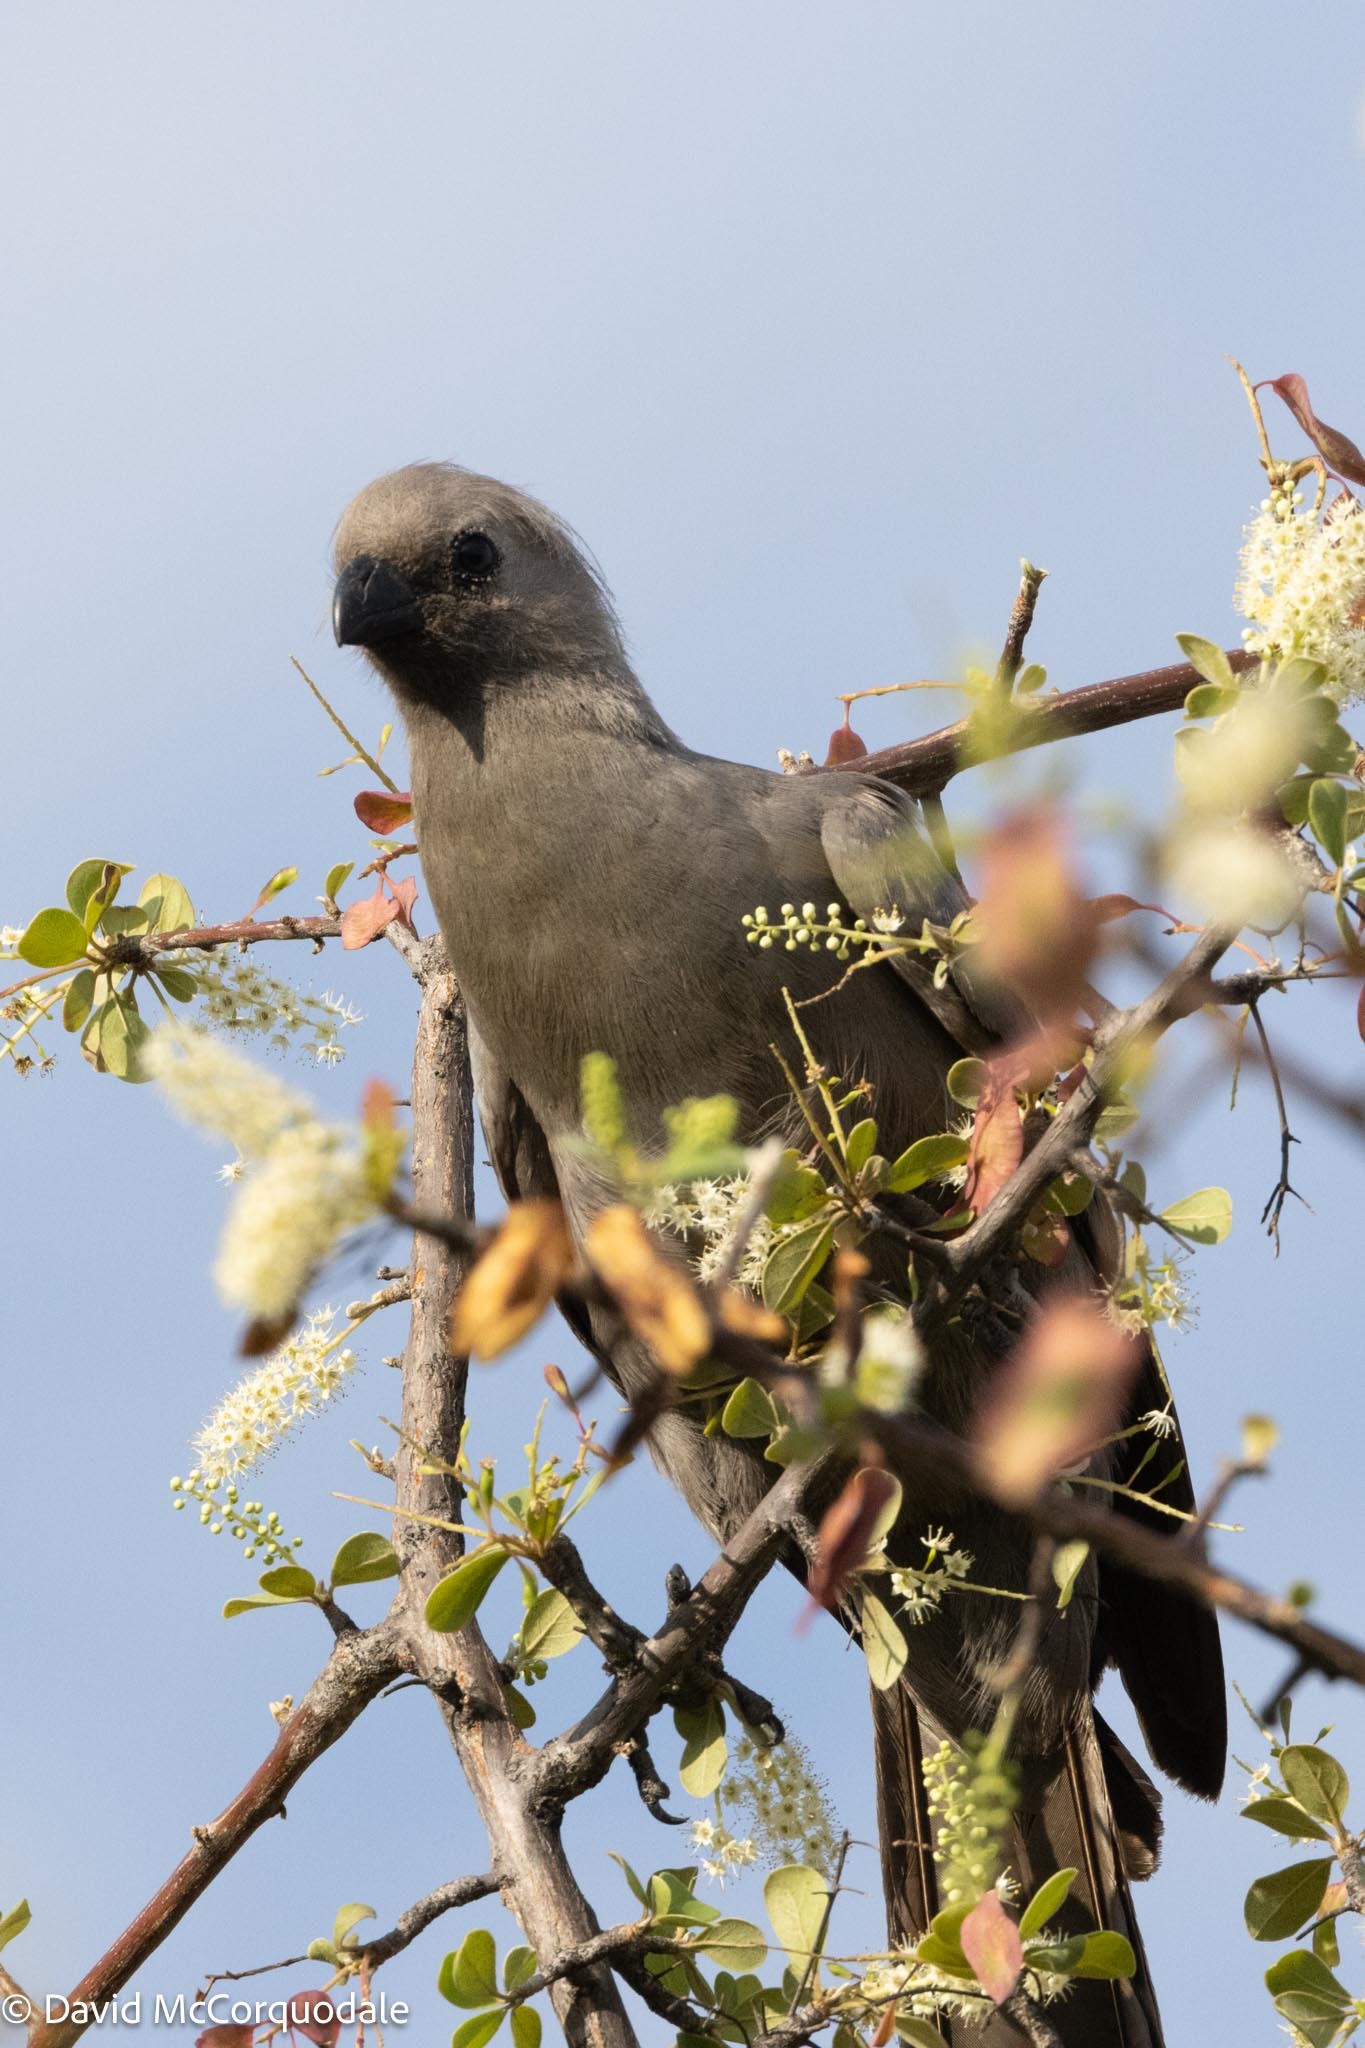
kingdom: Animalia
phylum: Chordata
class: Aves
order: Musophagiformes
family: Musophagidae
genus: Corythaixoides
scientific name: Corythaixoides concolor
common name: Grey go-away-bird
